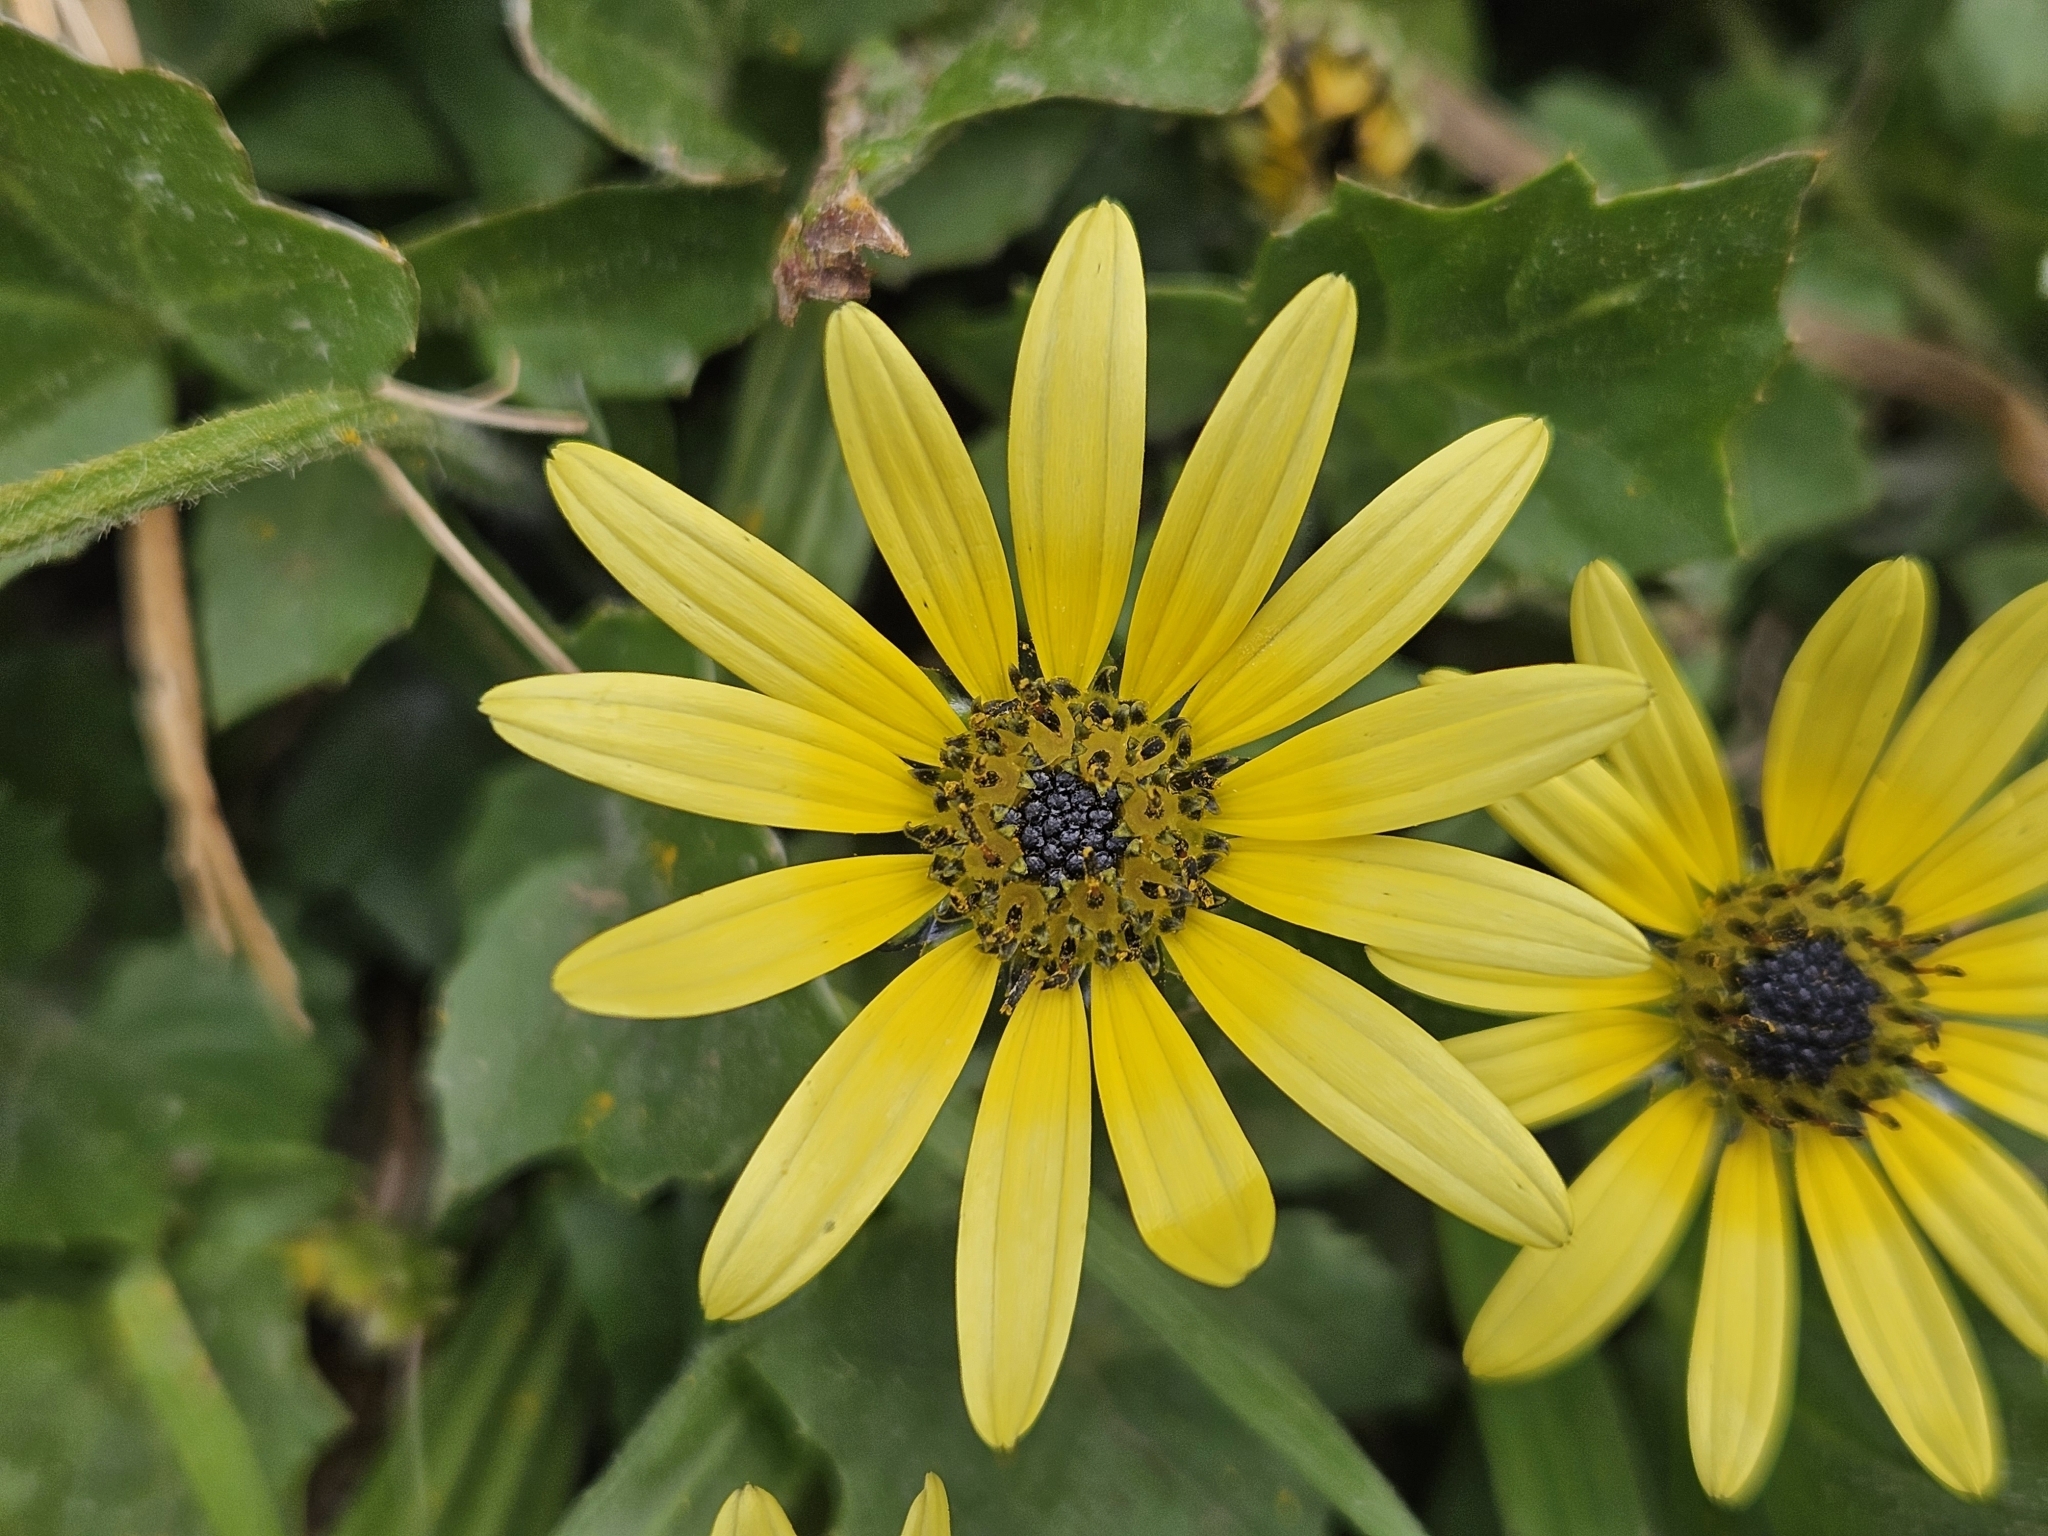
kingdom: Plantae
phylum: Tracheophyta
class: Magnoliopsida
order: Asterales
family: Asteraceae
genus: Arctotheca
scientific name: Arctotheca calendula
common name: Capeweed
